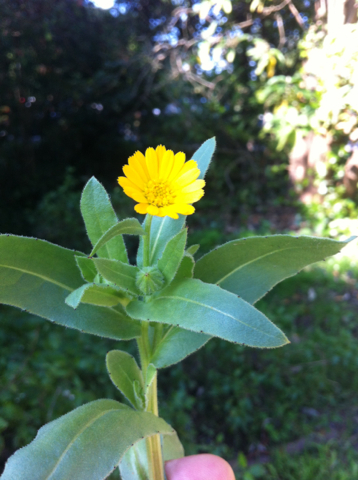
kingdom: Plantae
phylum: Tracheophyta
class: Magnoliopsida
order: Asterales
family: Asteraceae
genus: Calendula
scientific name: Calendula arvensis
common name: Field marigold
